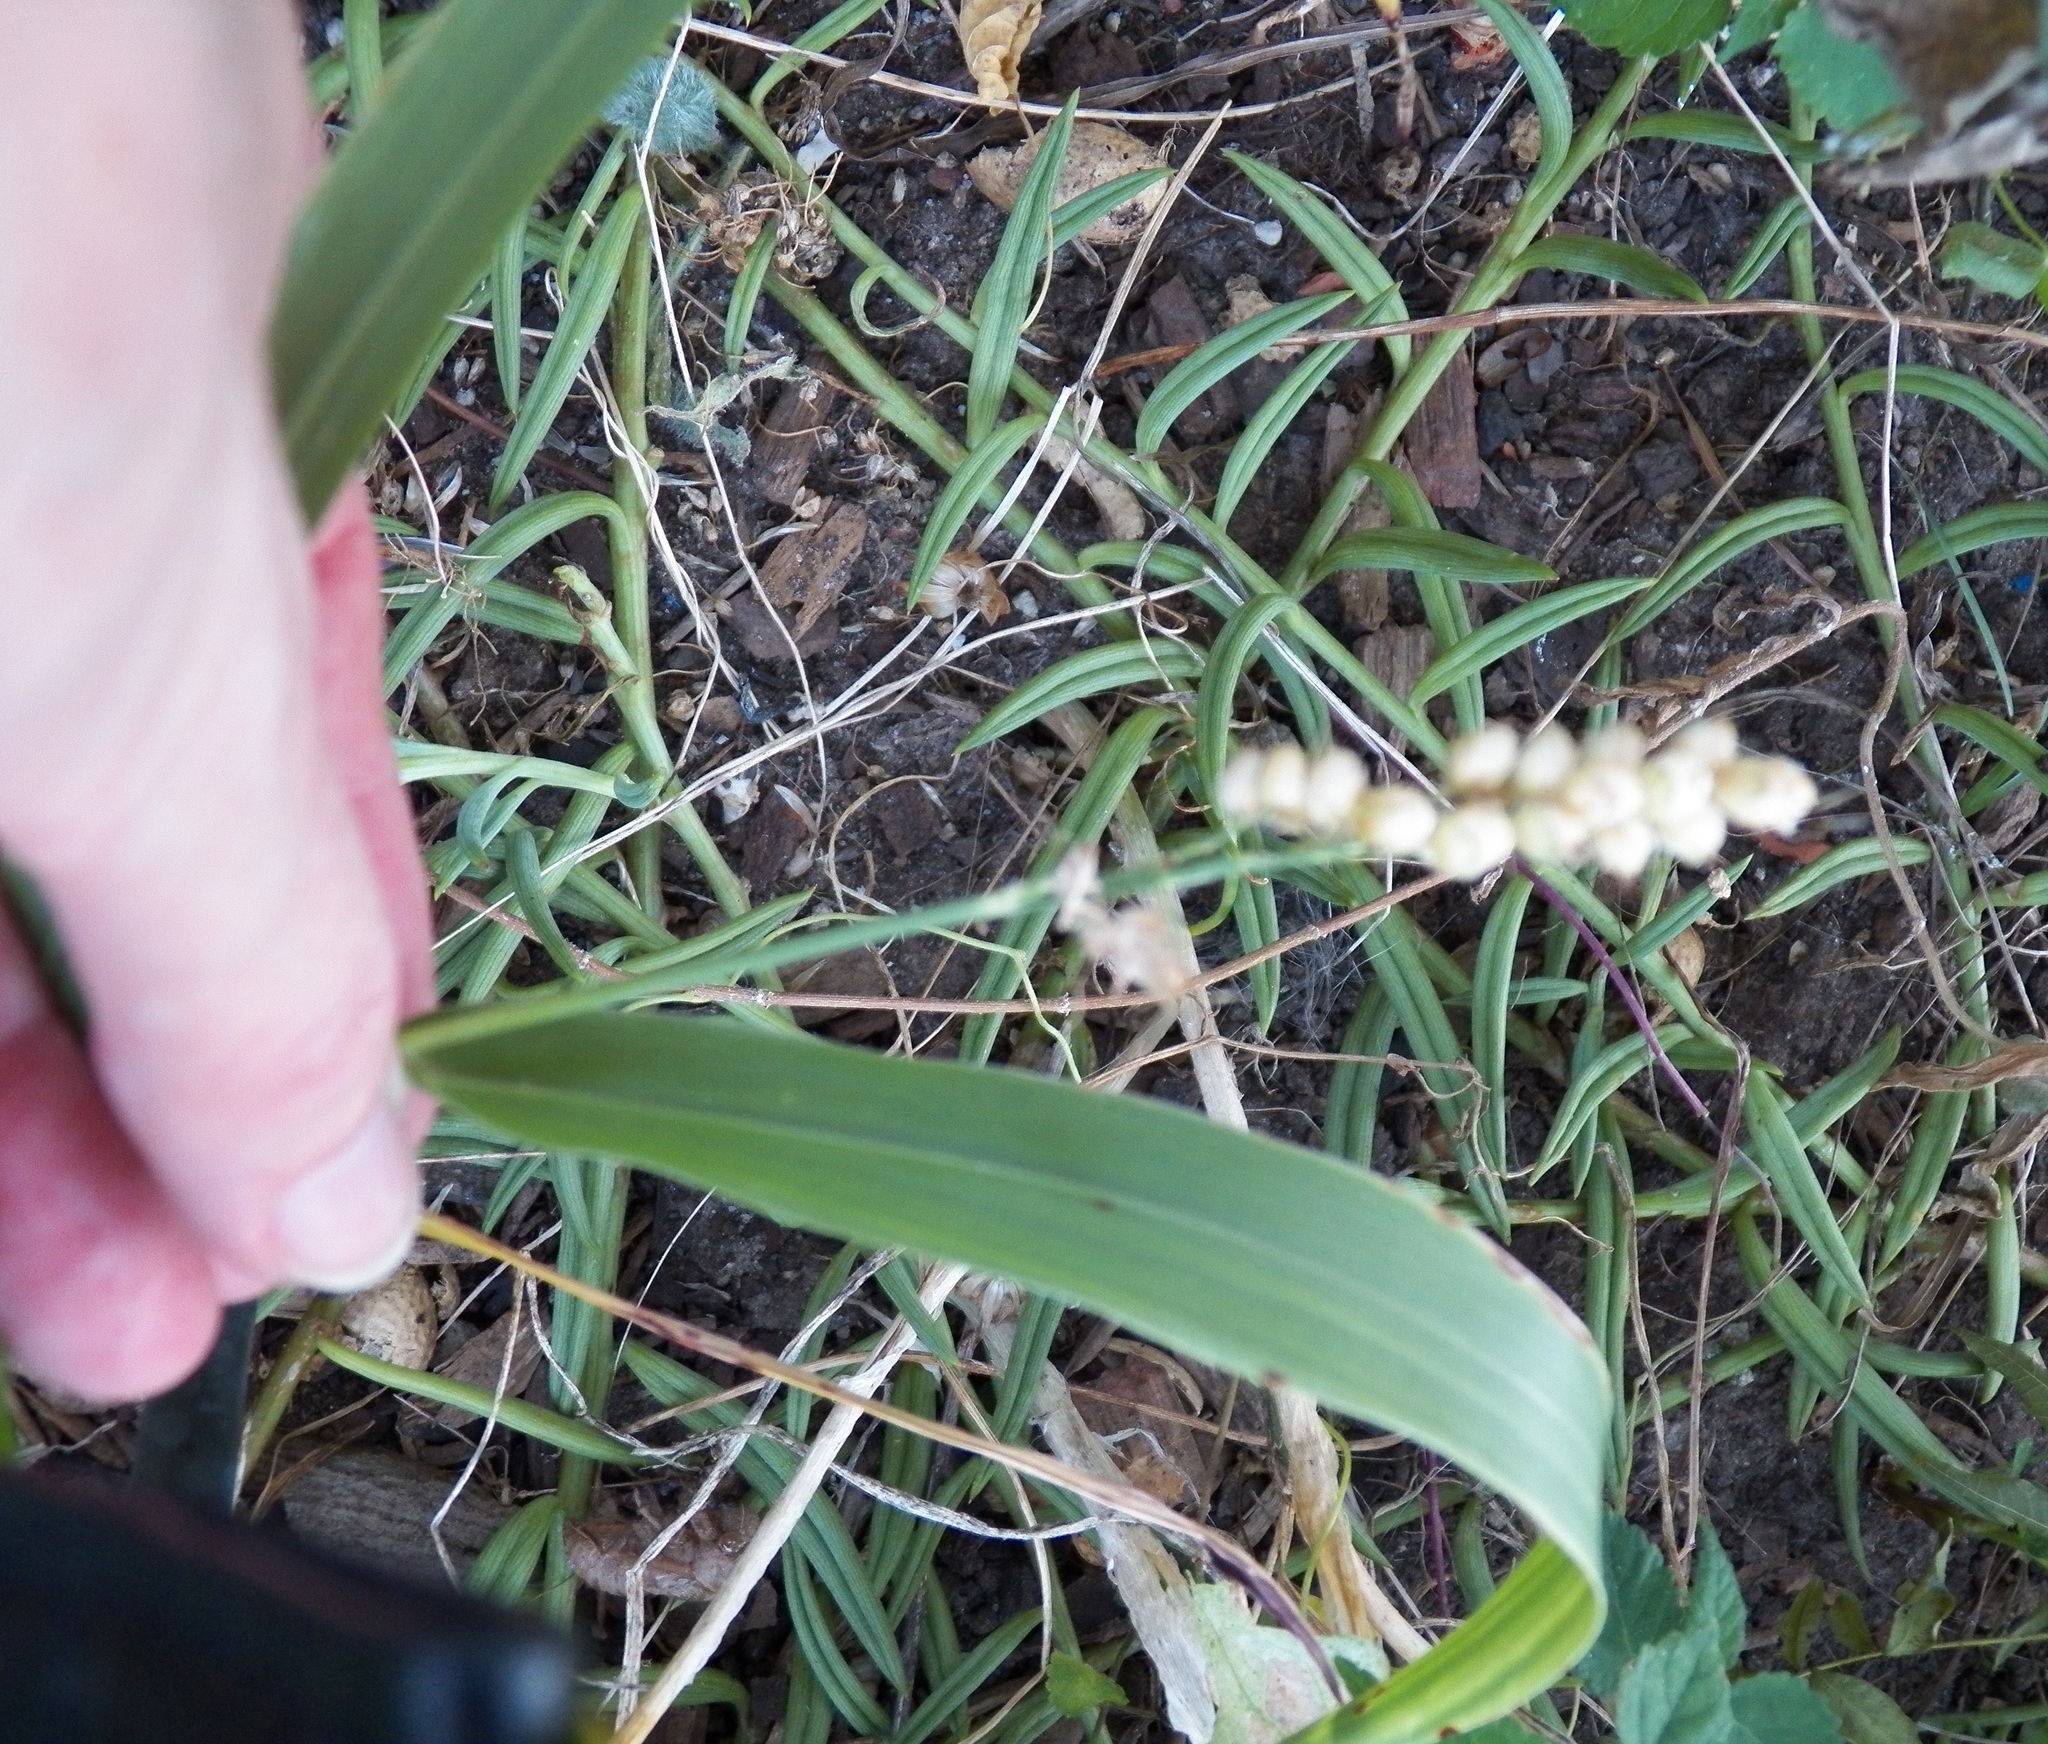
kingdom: Plantae
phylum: Tracheophyta
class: Liliopsida
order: Poales
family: Poaceae
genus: Sorghum
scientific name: Sorghum bicolor
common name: Sorghum
